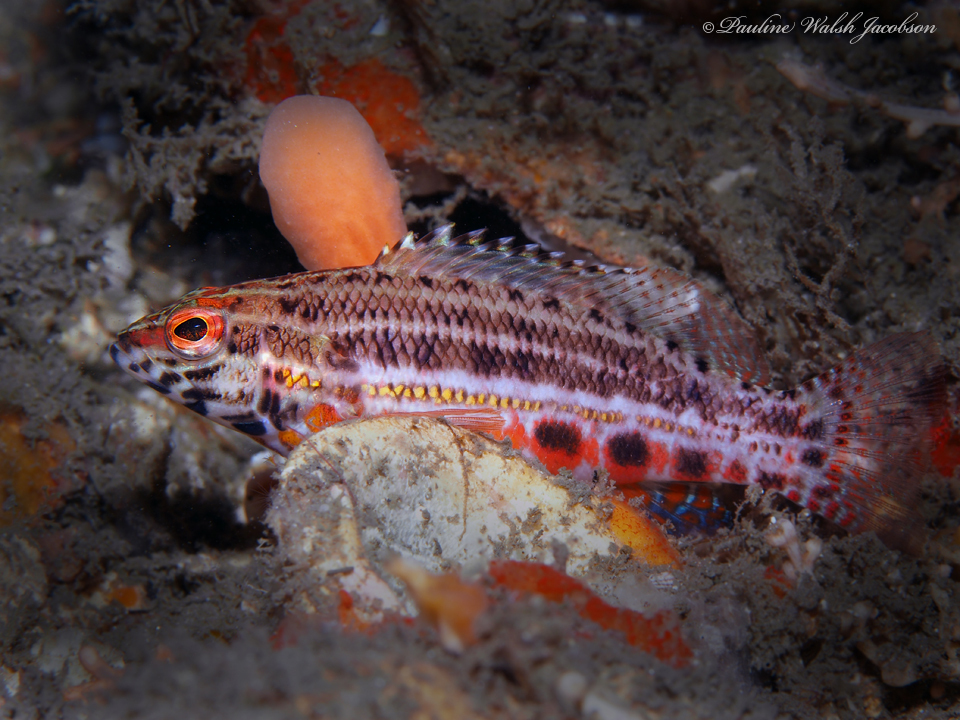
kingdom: Animalia
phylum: Chordata
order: Perciformes
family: Serranidae
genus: Serranus
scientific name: Serranus baldwini
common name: Lantern bass
